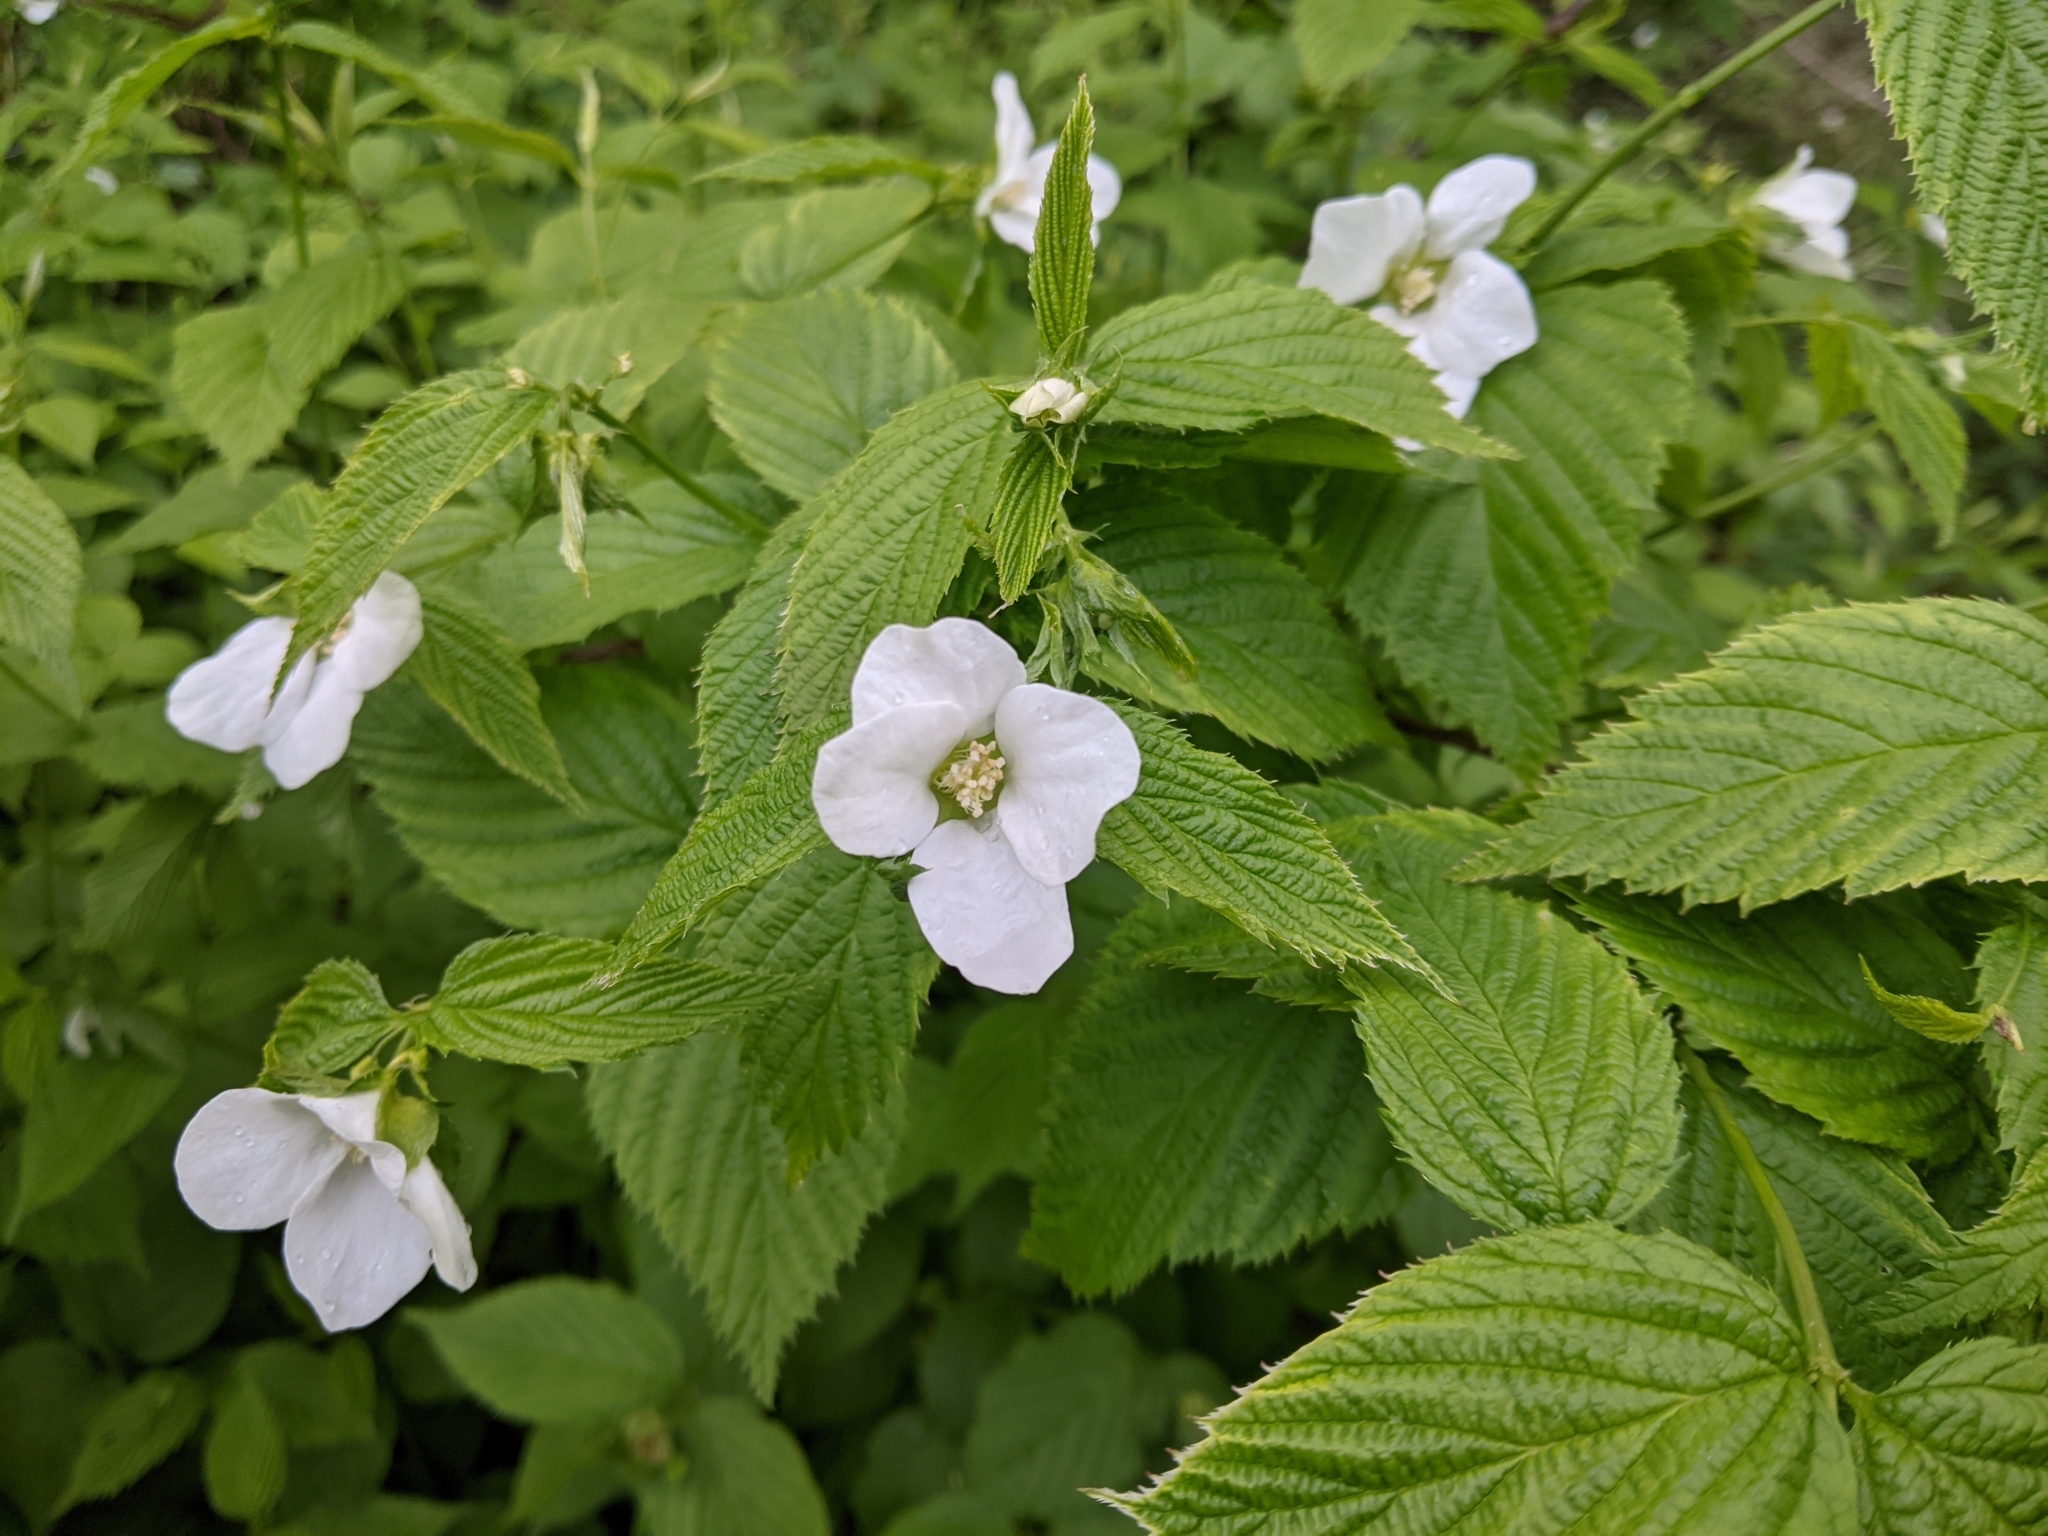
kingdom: Plantae
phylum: Tracheophyta
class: Magnoliopsida
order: Rosales
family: Rosaceae
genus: Rhodotypos
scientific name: Rhodotypos scandens
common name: Jetbead
